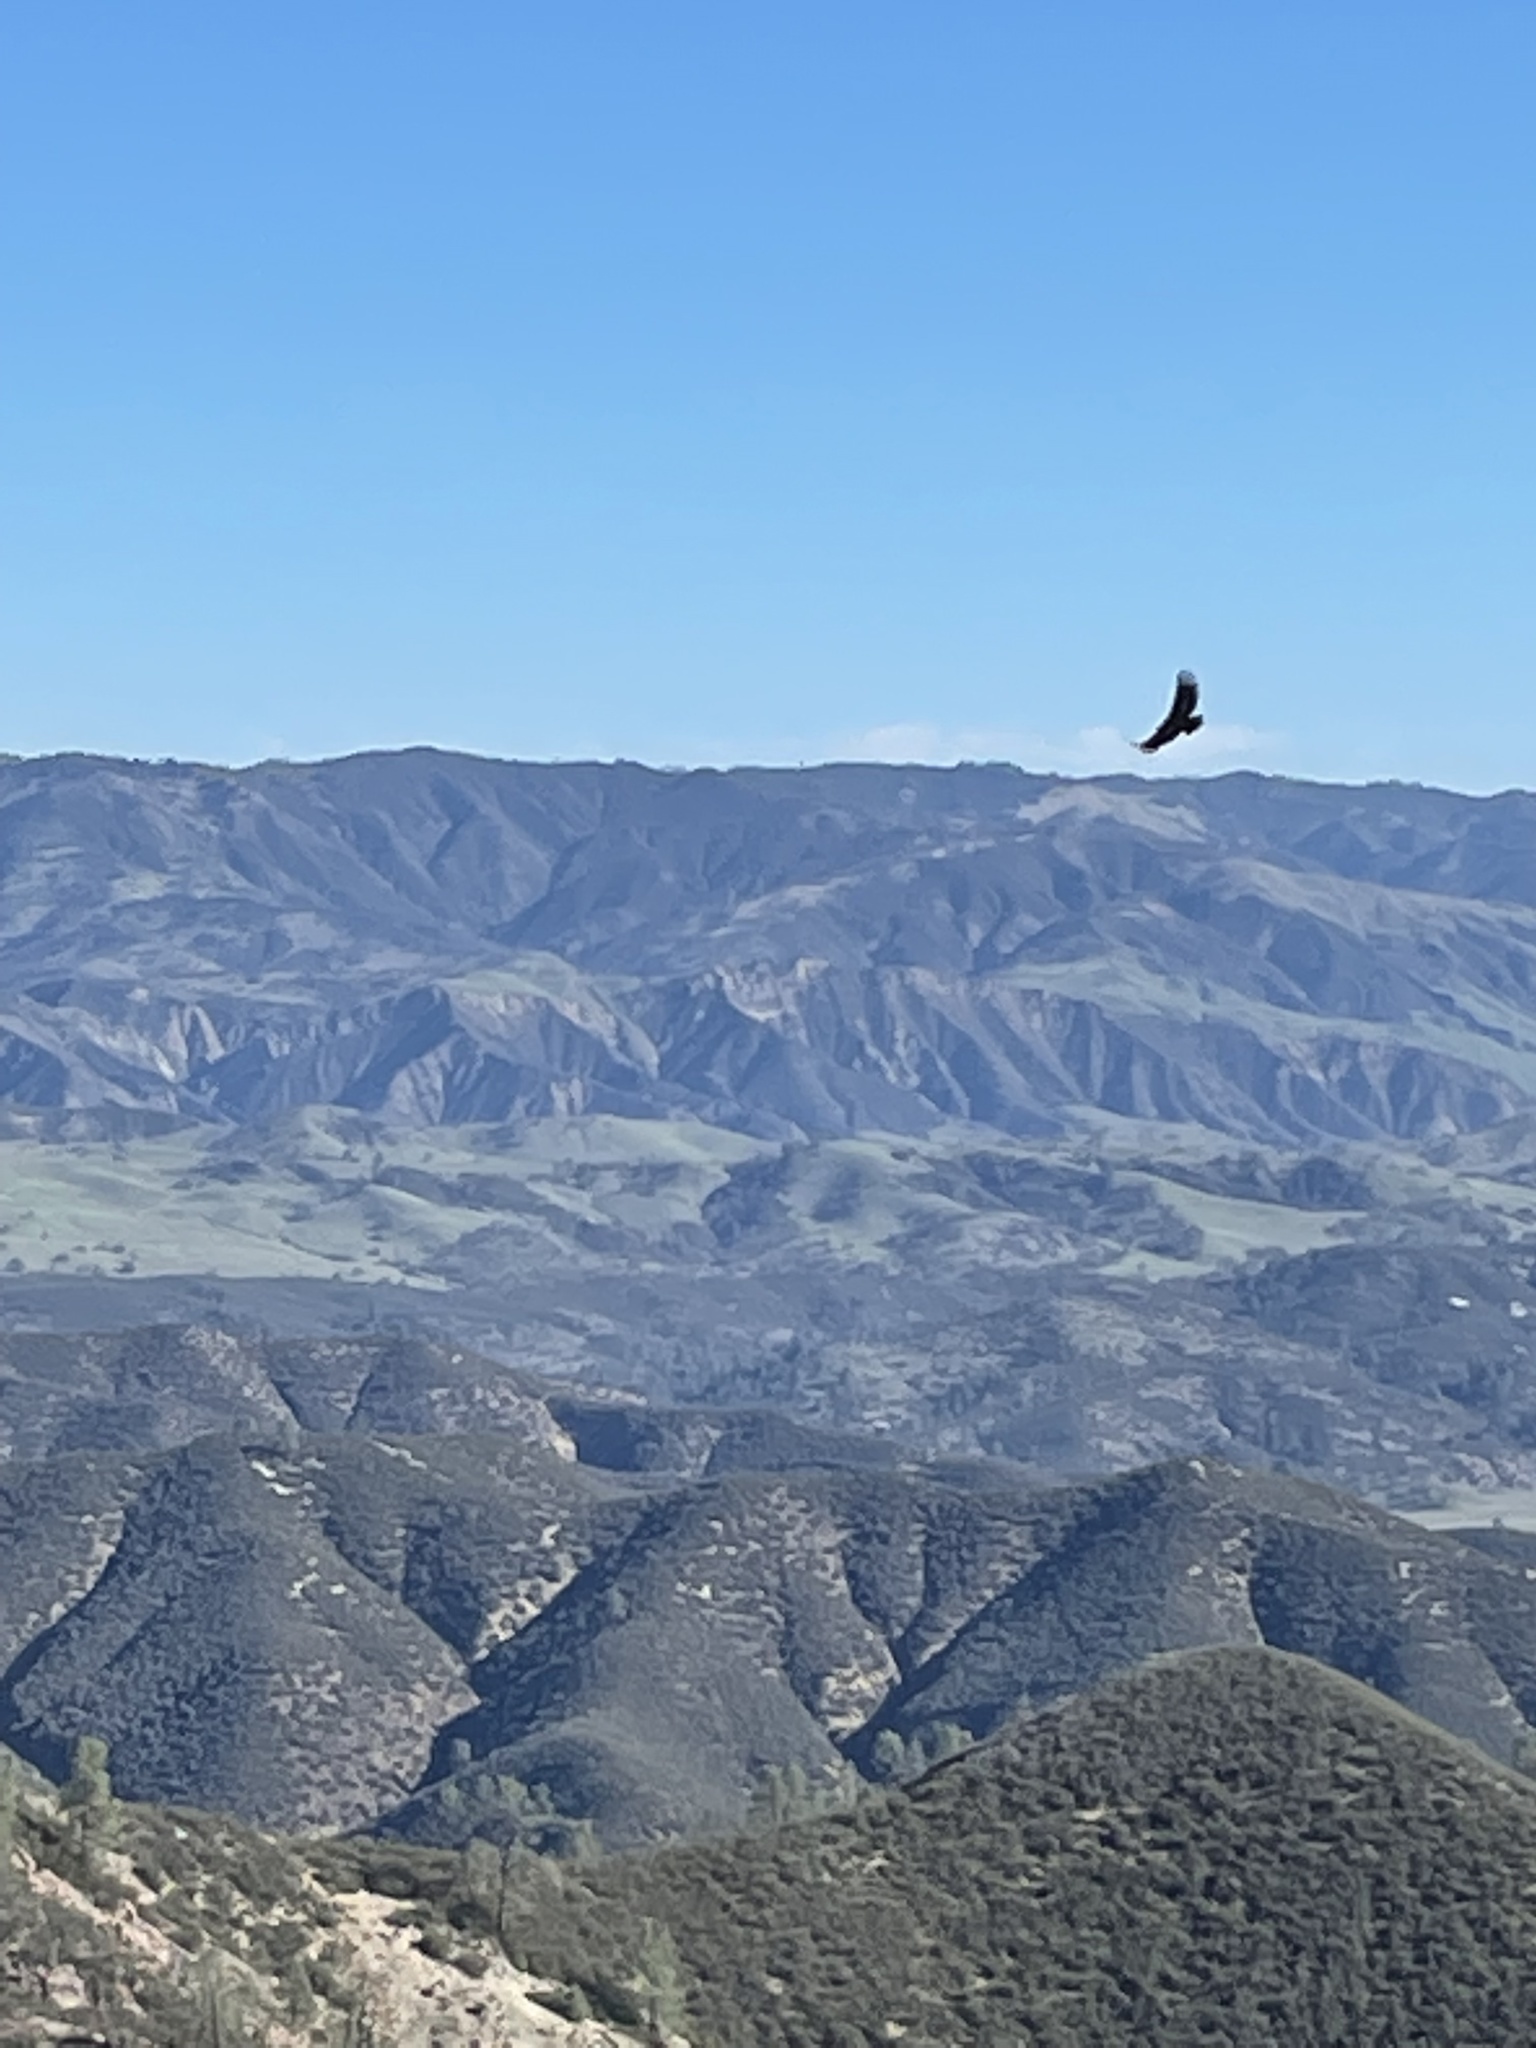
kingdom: Animalia
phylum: Chordata
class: Aves
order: Accipitriformes
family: Cathartidae
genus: Gymnogyps
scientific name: Gymnogyps californianus
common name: California condor
